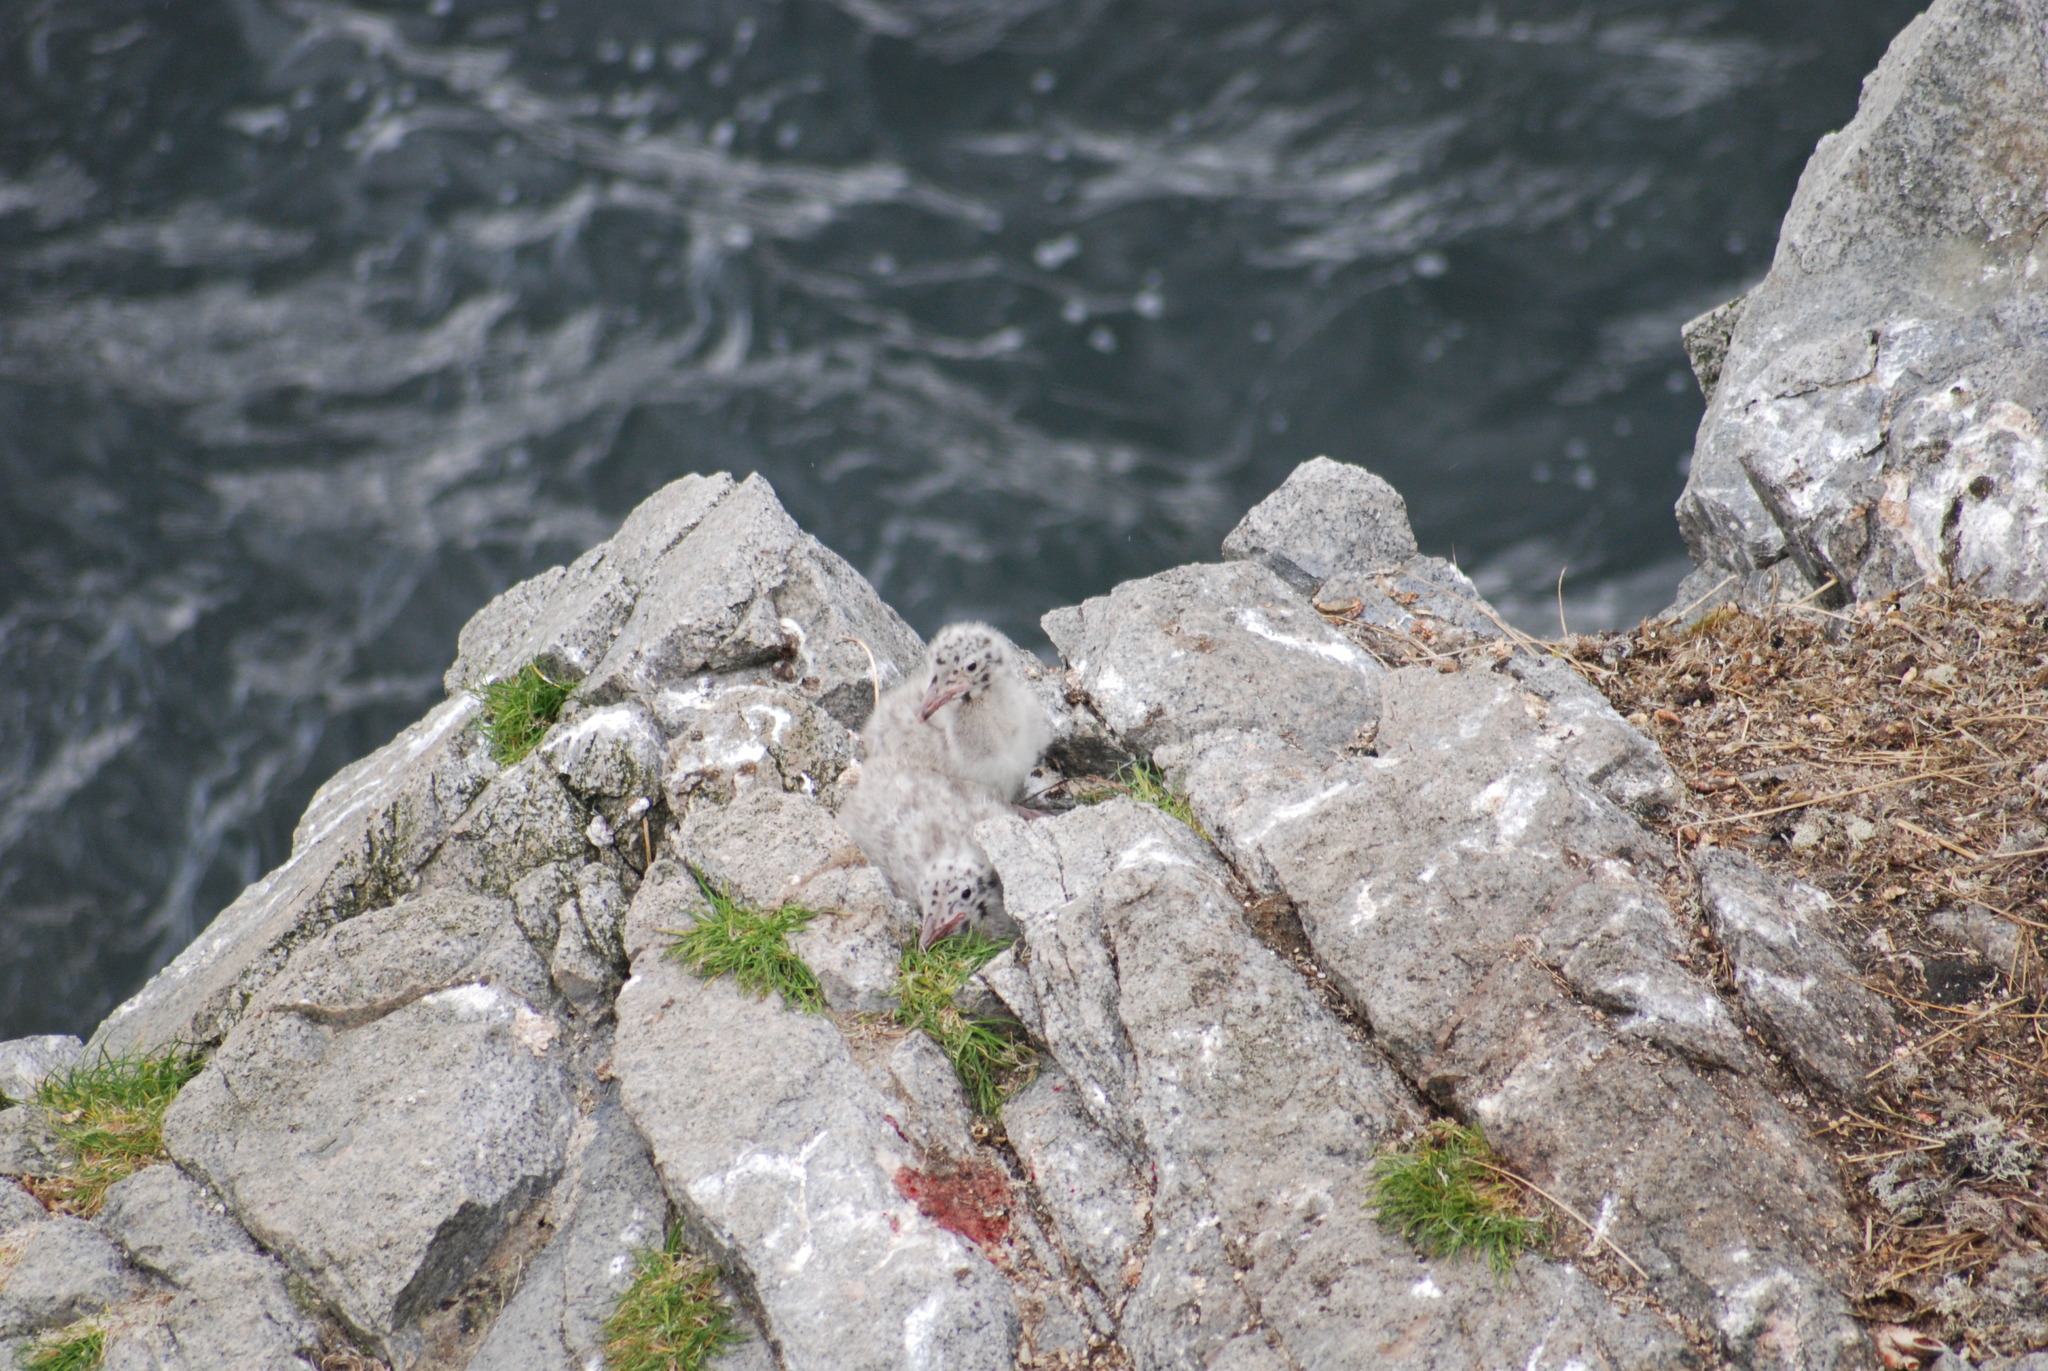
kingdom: Animalia
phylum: Chordata
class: Aves
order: Charadriiformes
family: Laridae
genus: Larus
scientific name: Larus hyperboreus
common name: Glaucous gull
